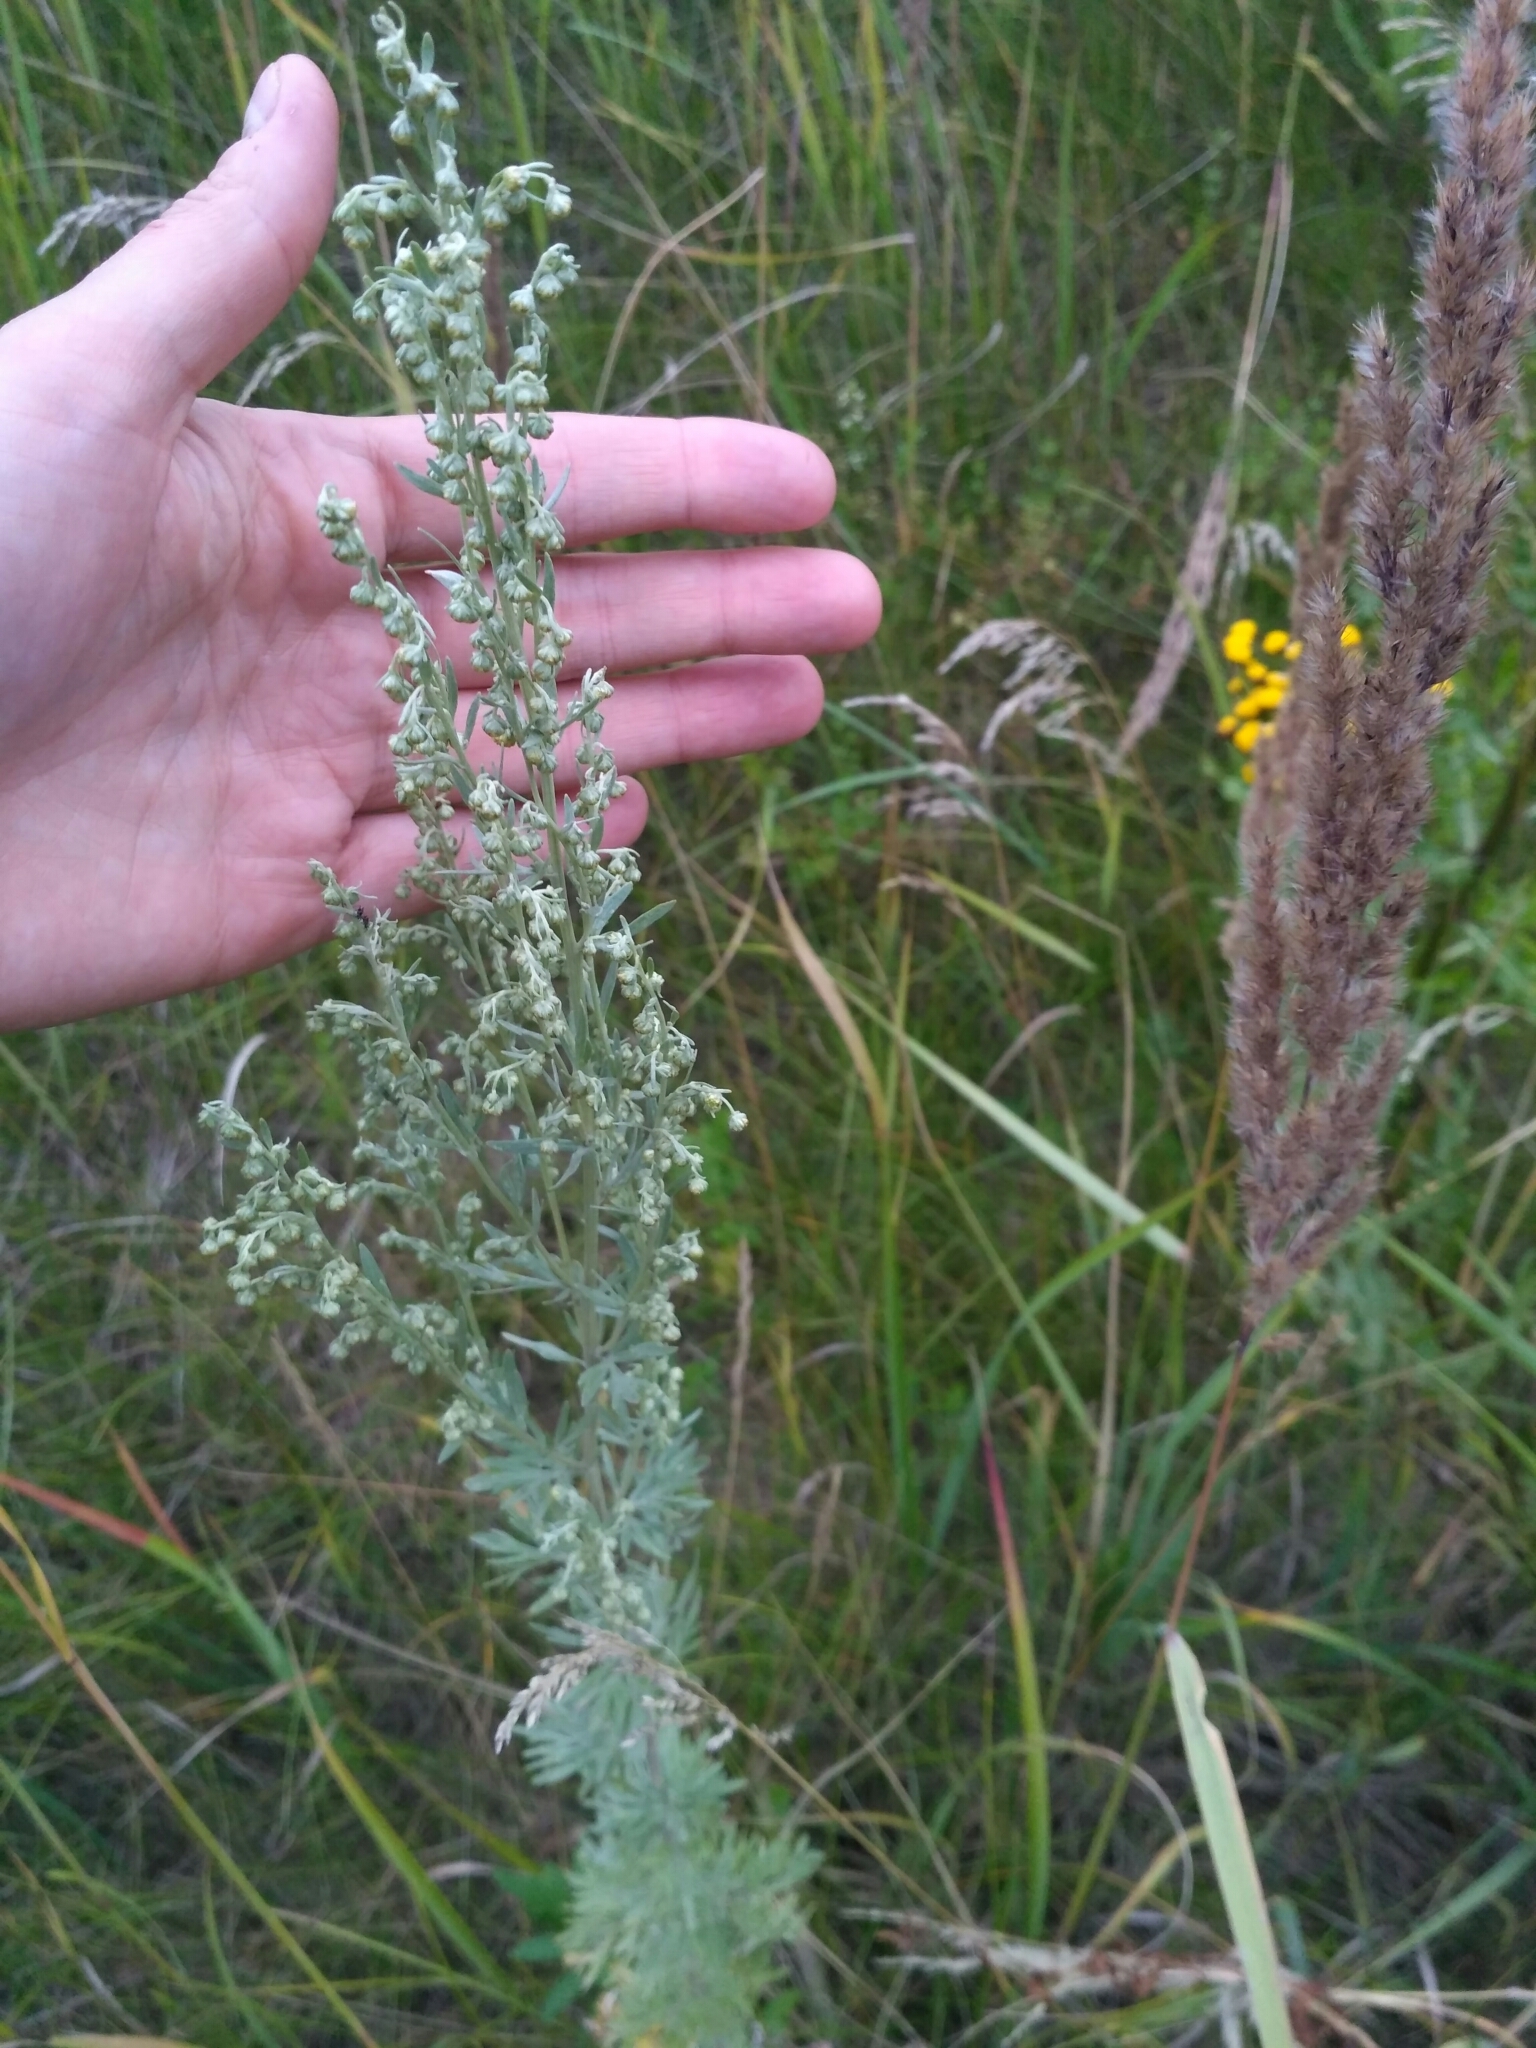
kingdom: Plantae
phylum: Tracheophyta
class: Magnoliopsida
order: Asterales
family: Asteraceae
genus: Artemisia
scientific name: Artemisia absinthium
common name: Wormwood
